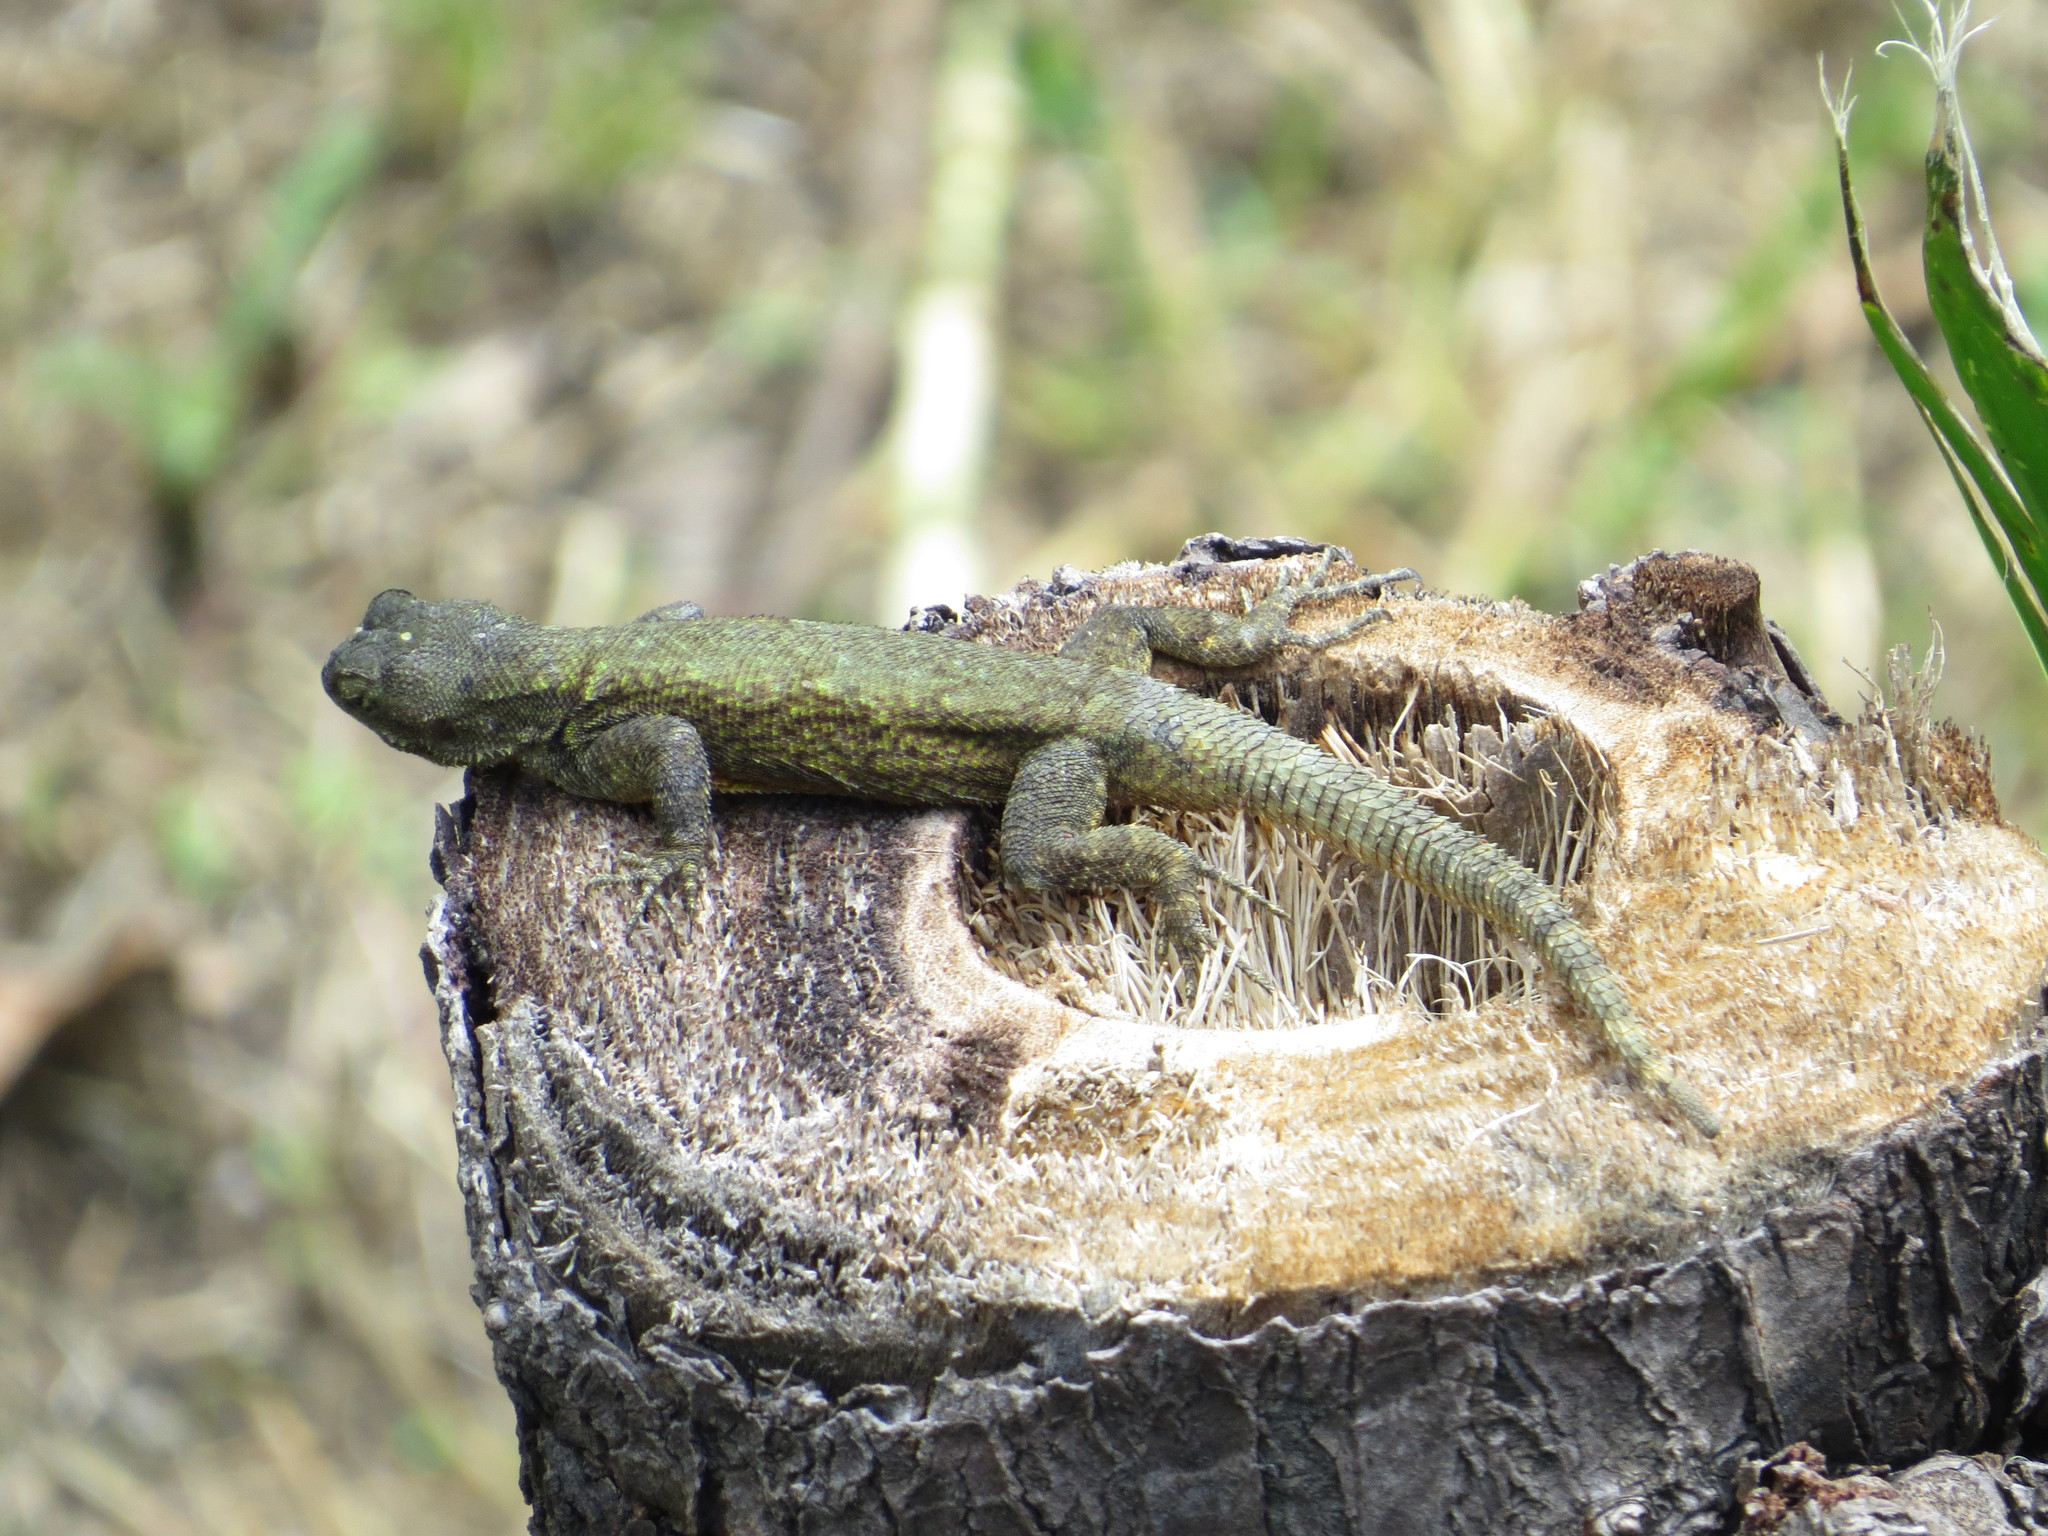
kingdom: Animalia
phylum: Chordata
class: Squamata
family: Phrynosomatidae
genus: Sceloporus
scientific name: Sceloporus grammicus
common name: Mesquite lizard
